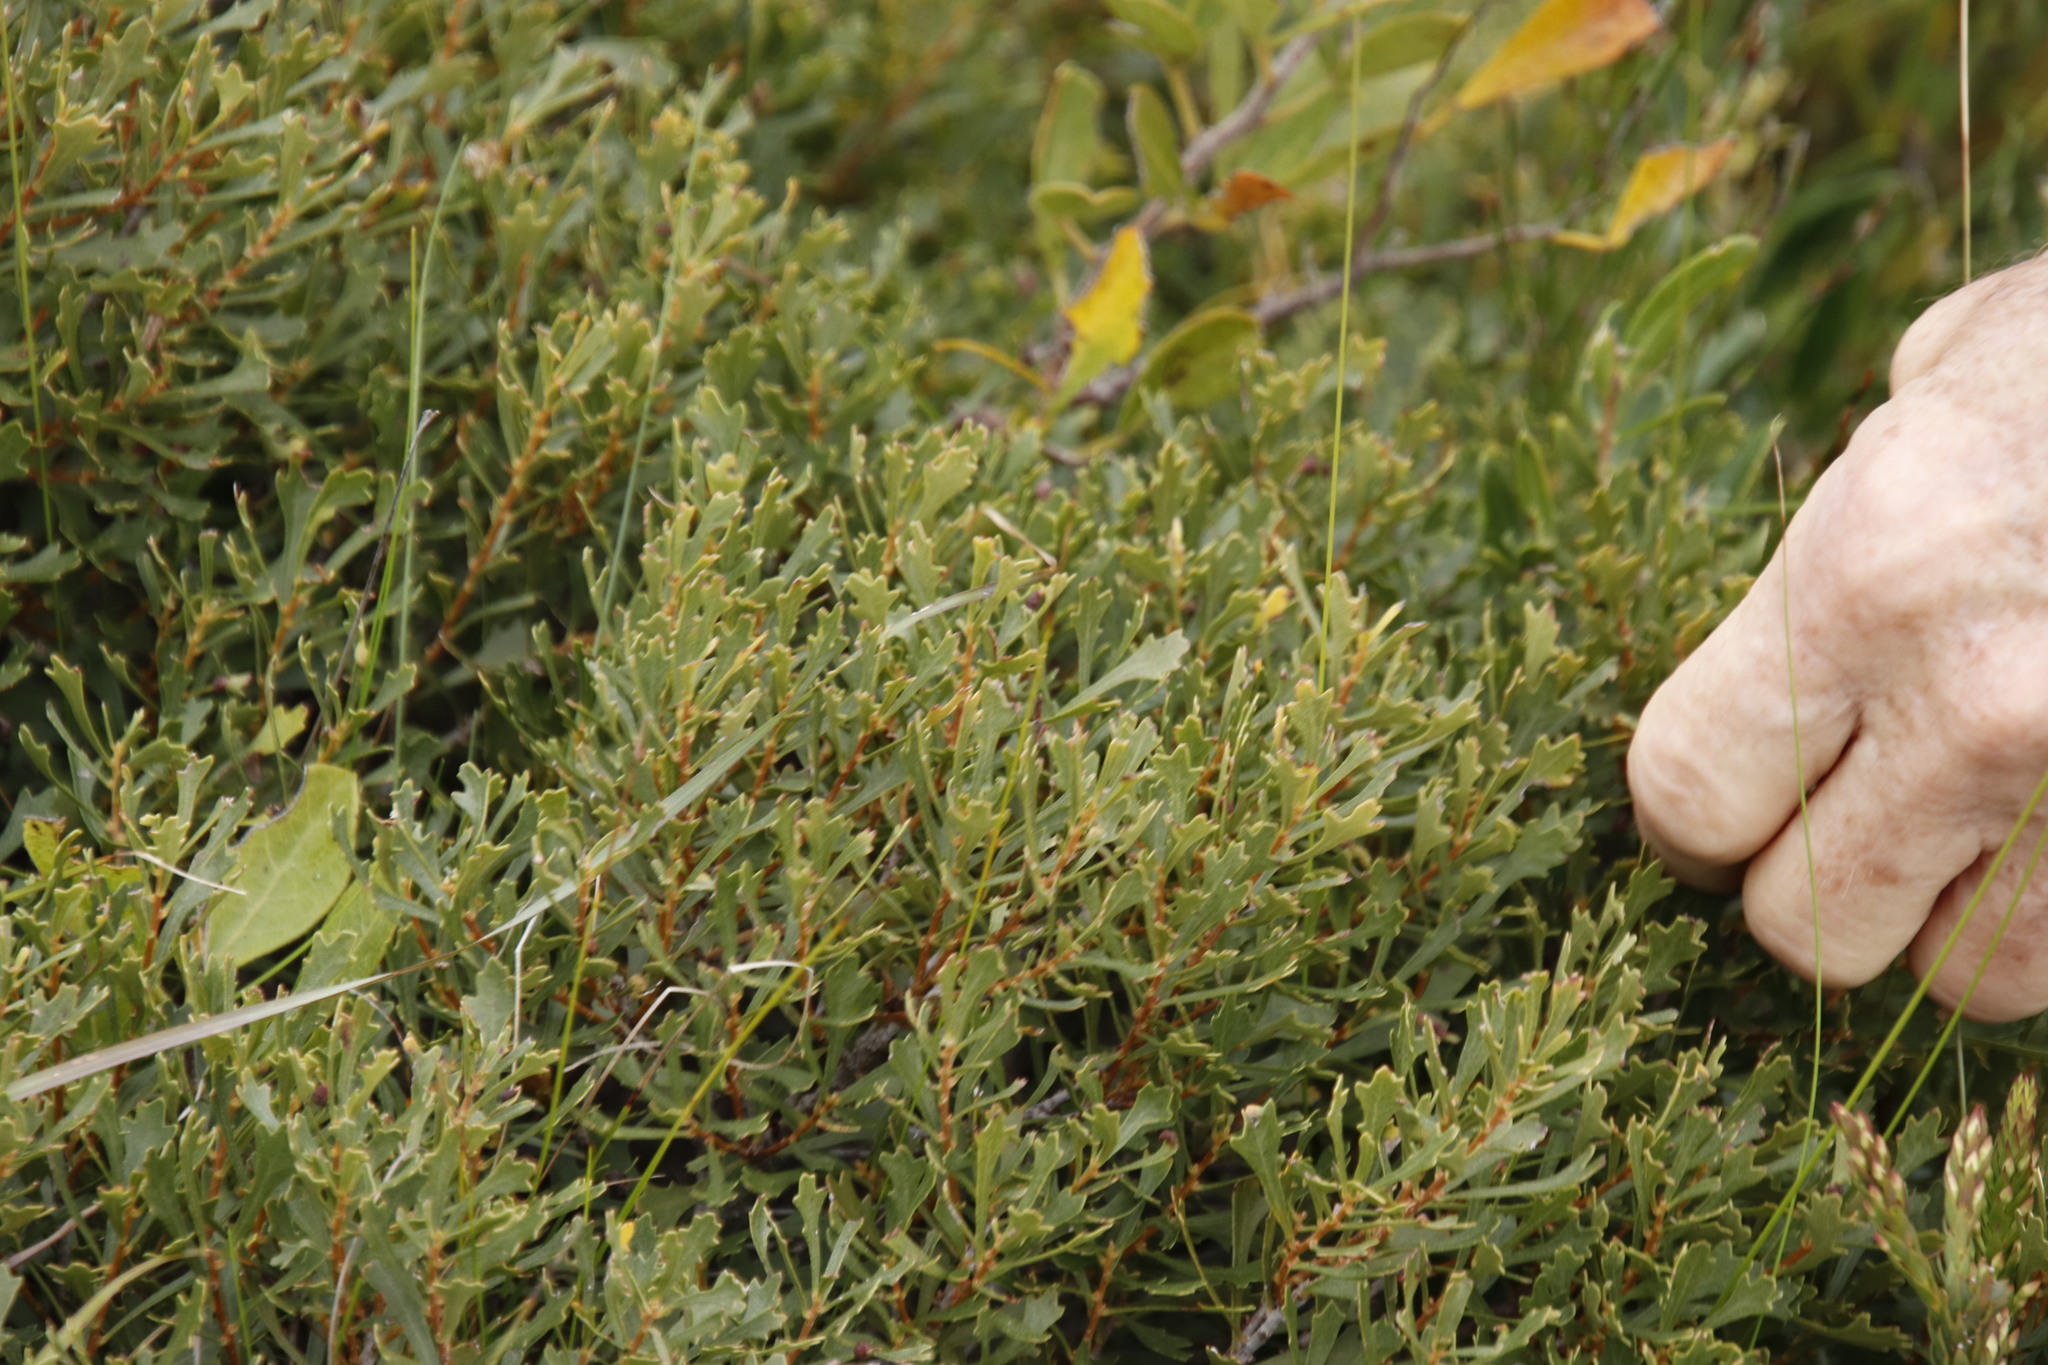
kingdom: Plantae
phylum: Tracheophyta
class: Magnoliopsida
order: Fagales
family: Myricaceae
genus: Morella
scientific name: Morella quercifolia
